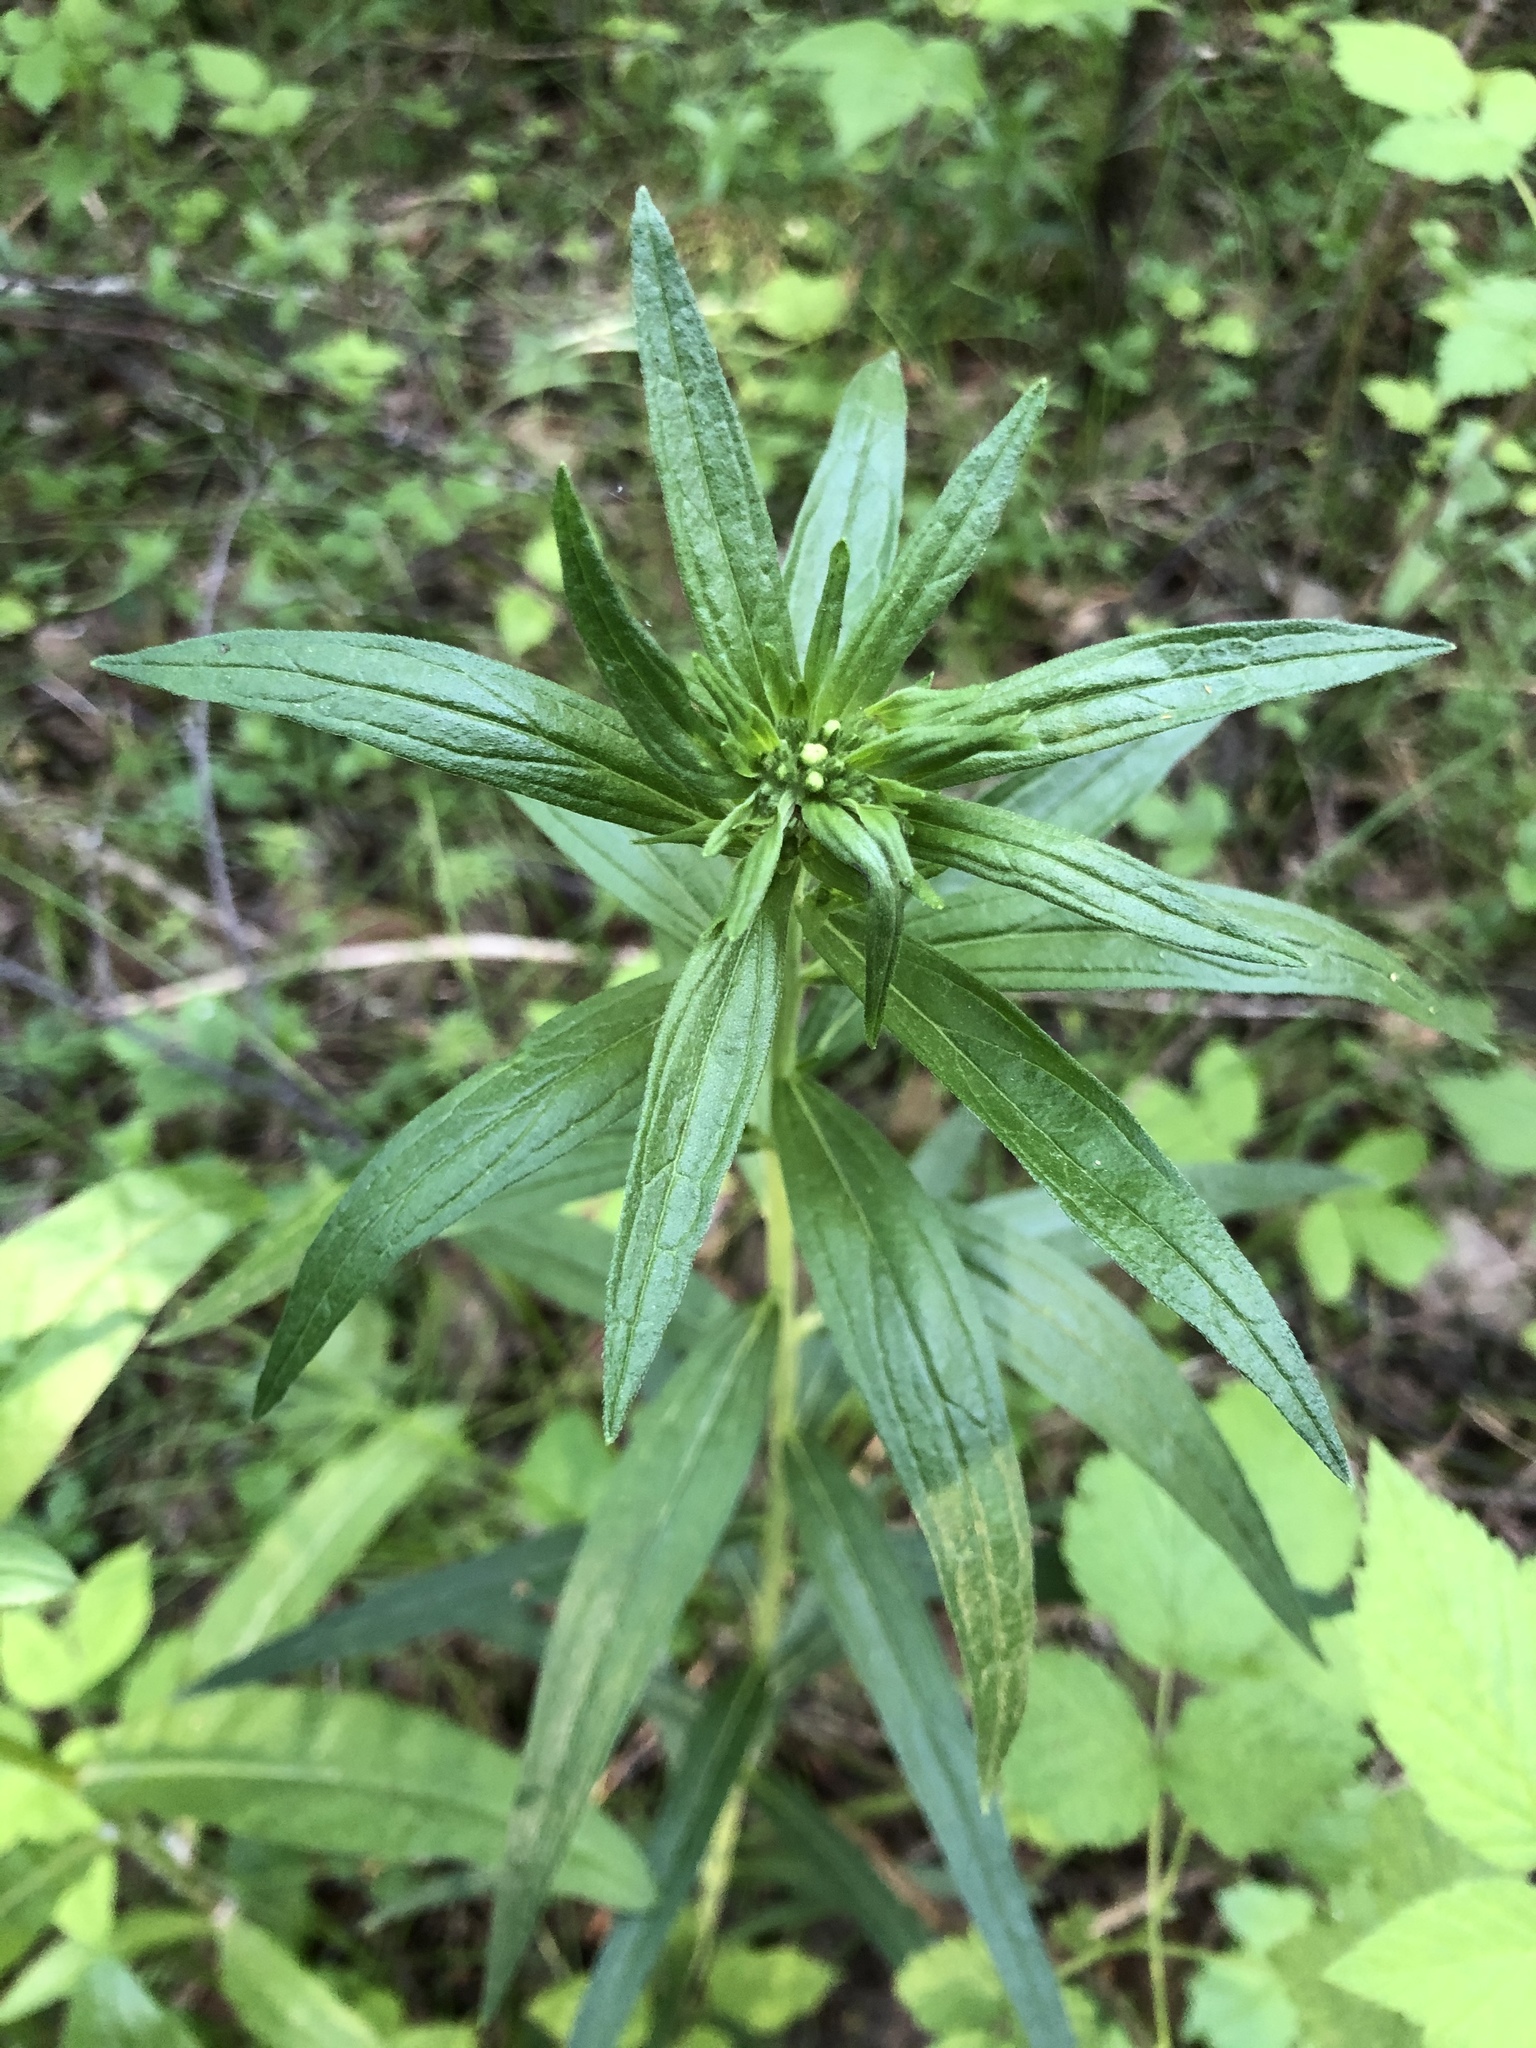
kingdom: Plantae
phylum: Tracheophyta
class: Magnoliopsida
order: Boraginales
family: Boraginaceae
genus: Lithospermum
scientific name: Lithospermum officinale
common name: Common gromwell
